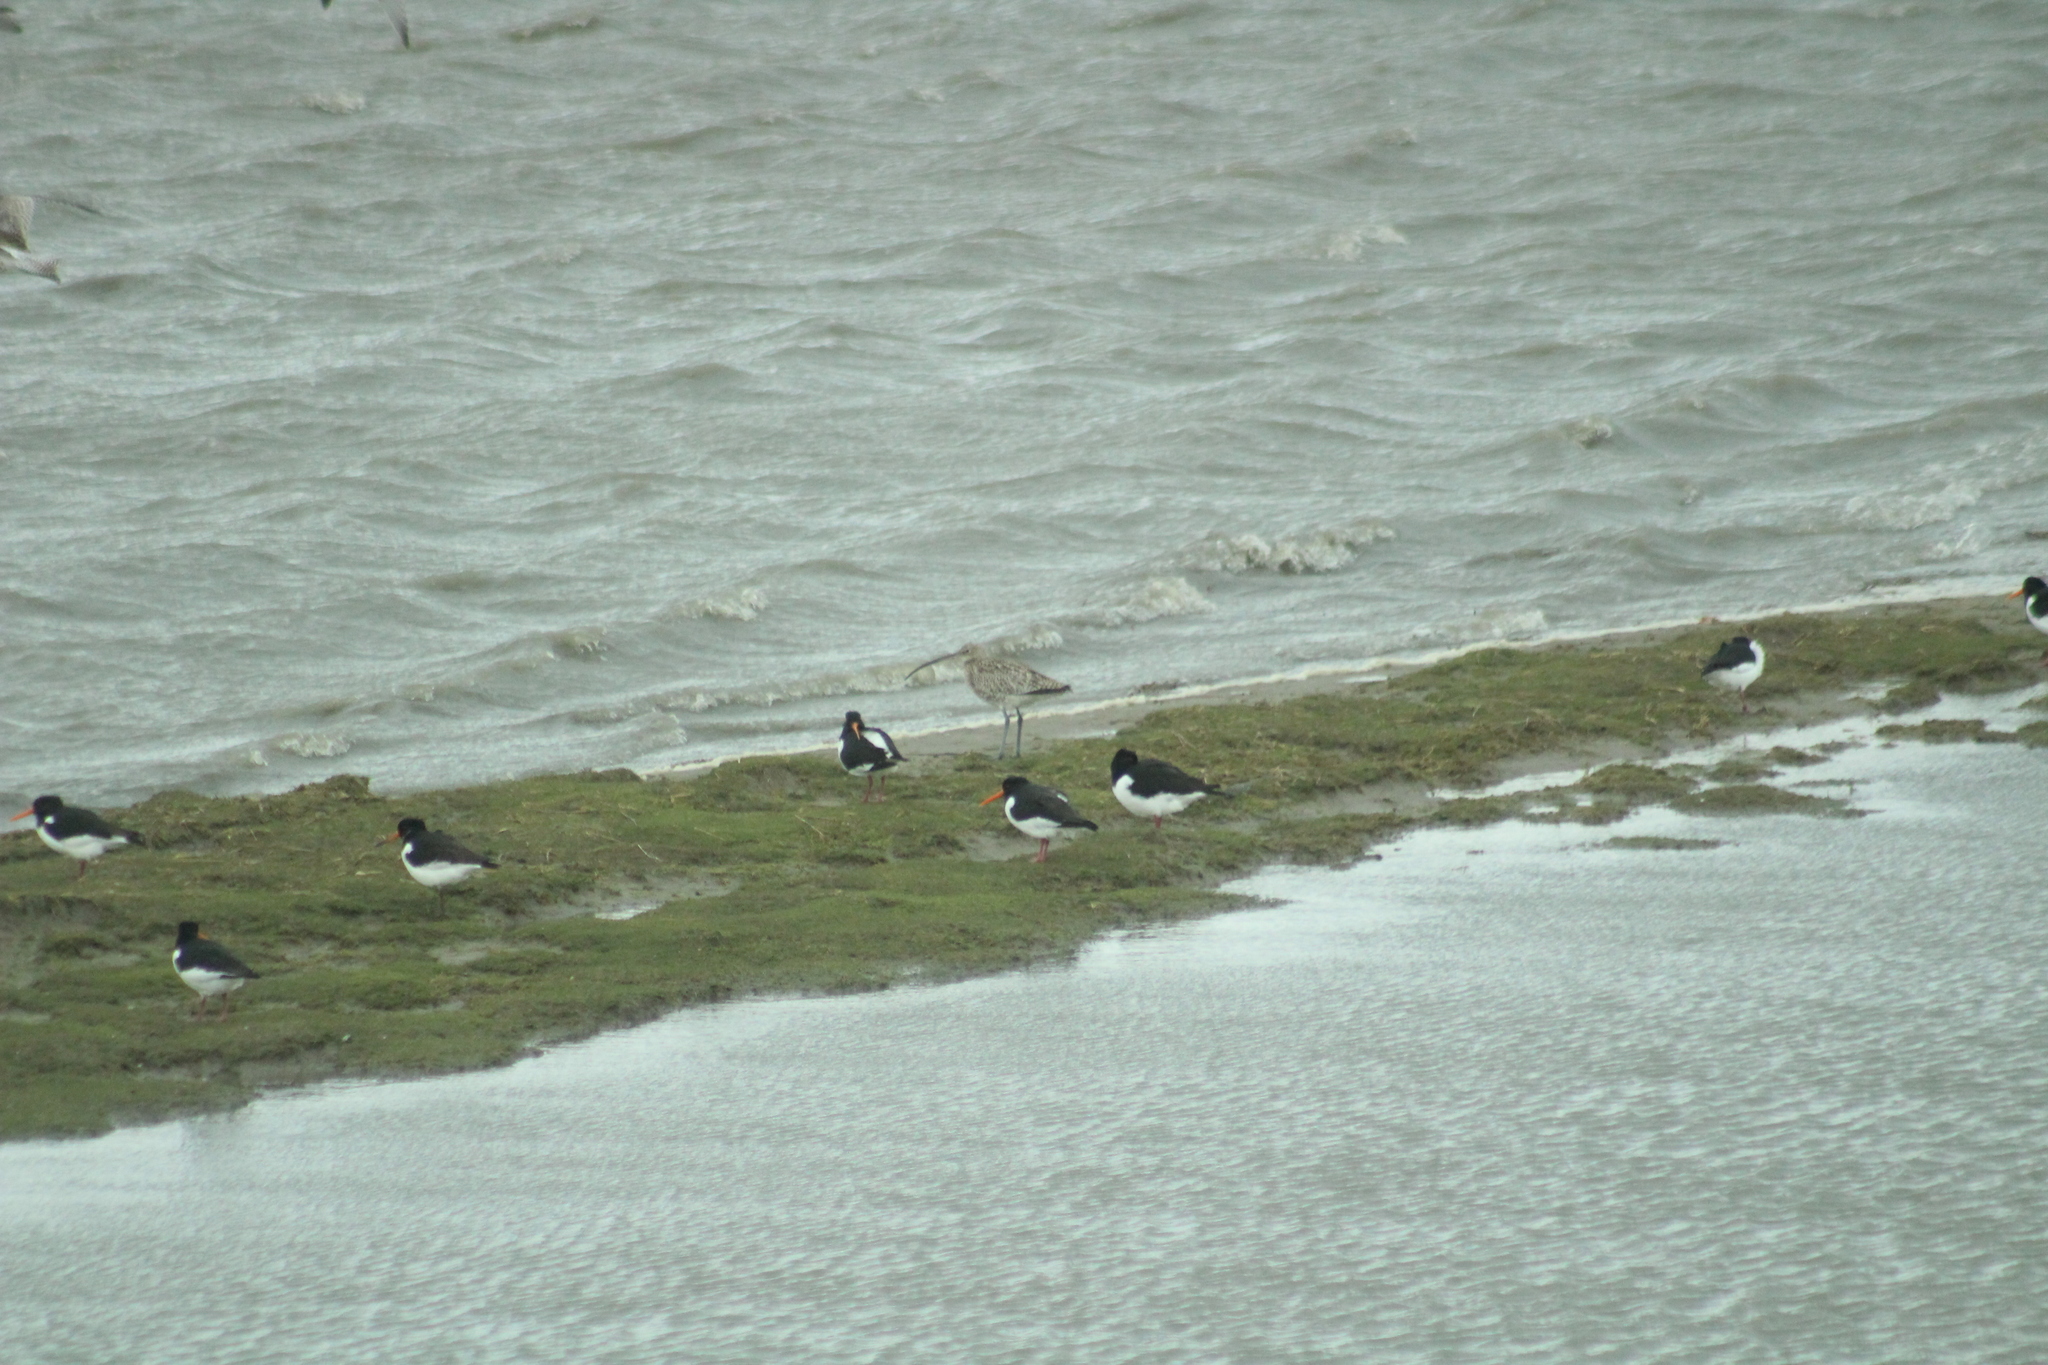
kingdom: Animalia
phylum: Chordata
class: Aves
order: Charadriiformes
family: Haematopodidae
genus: Haematopus
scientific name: Haematopus ostralegus
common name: Eurasian oystercatcher
